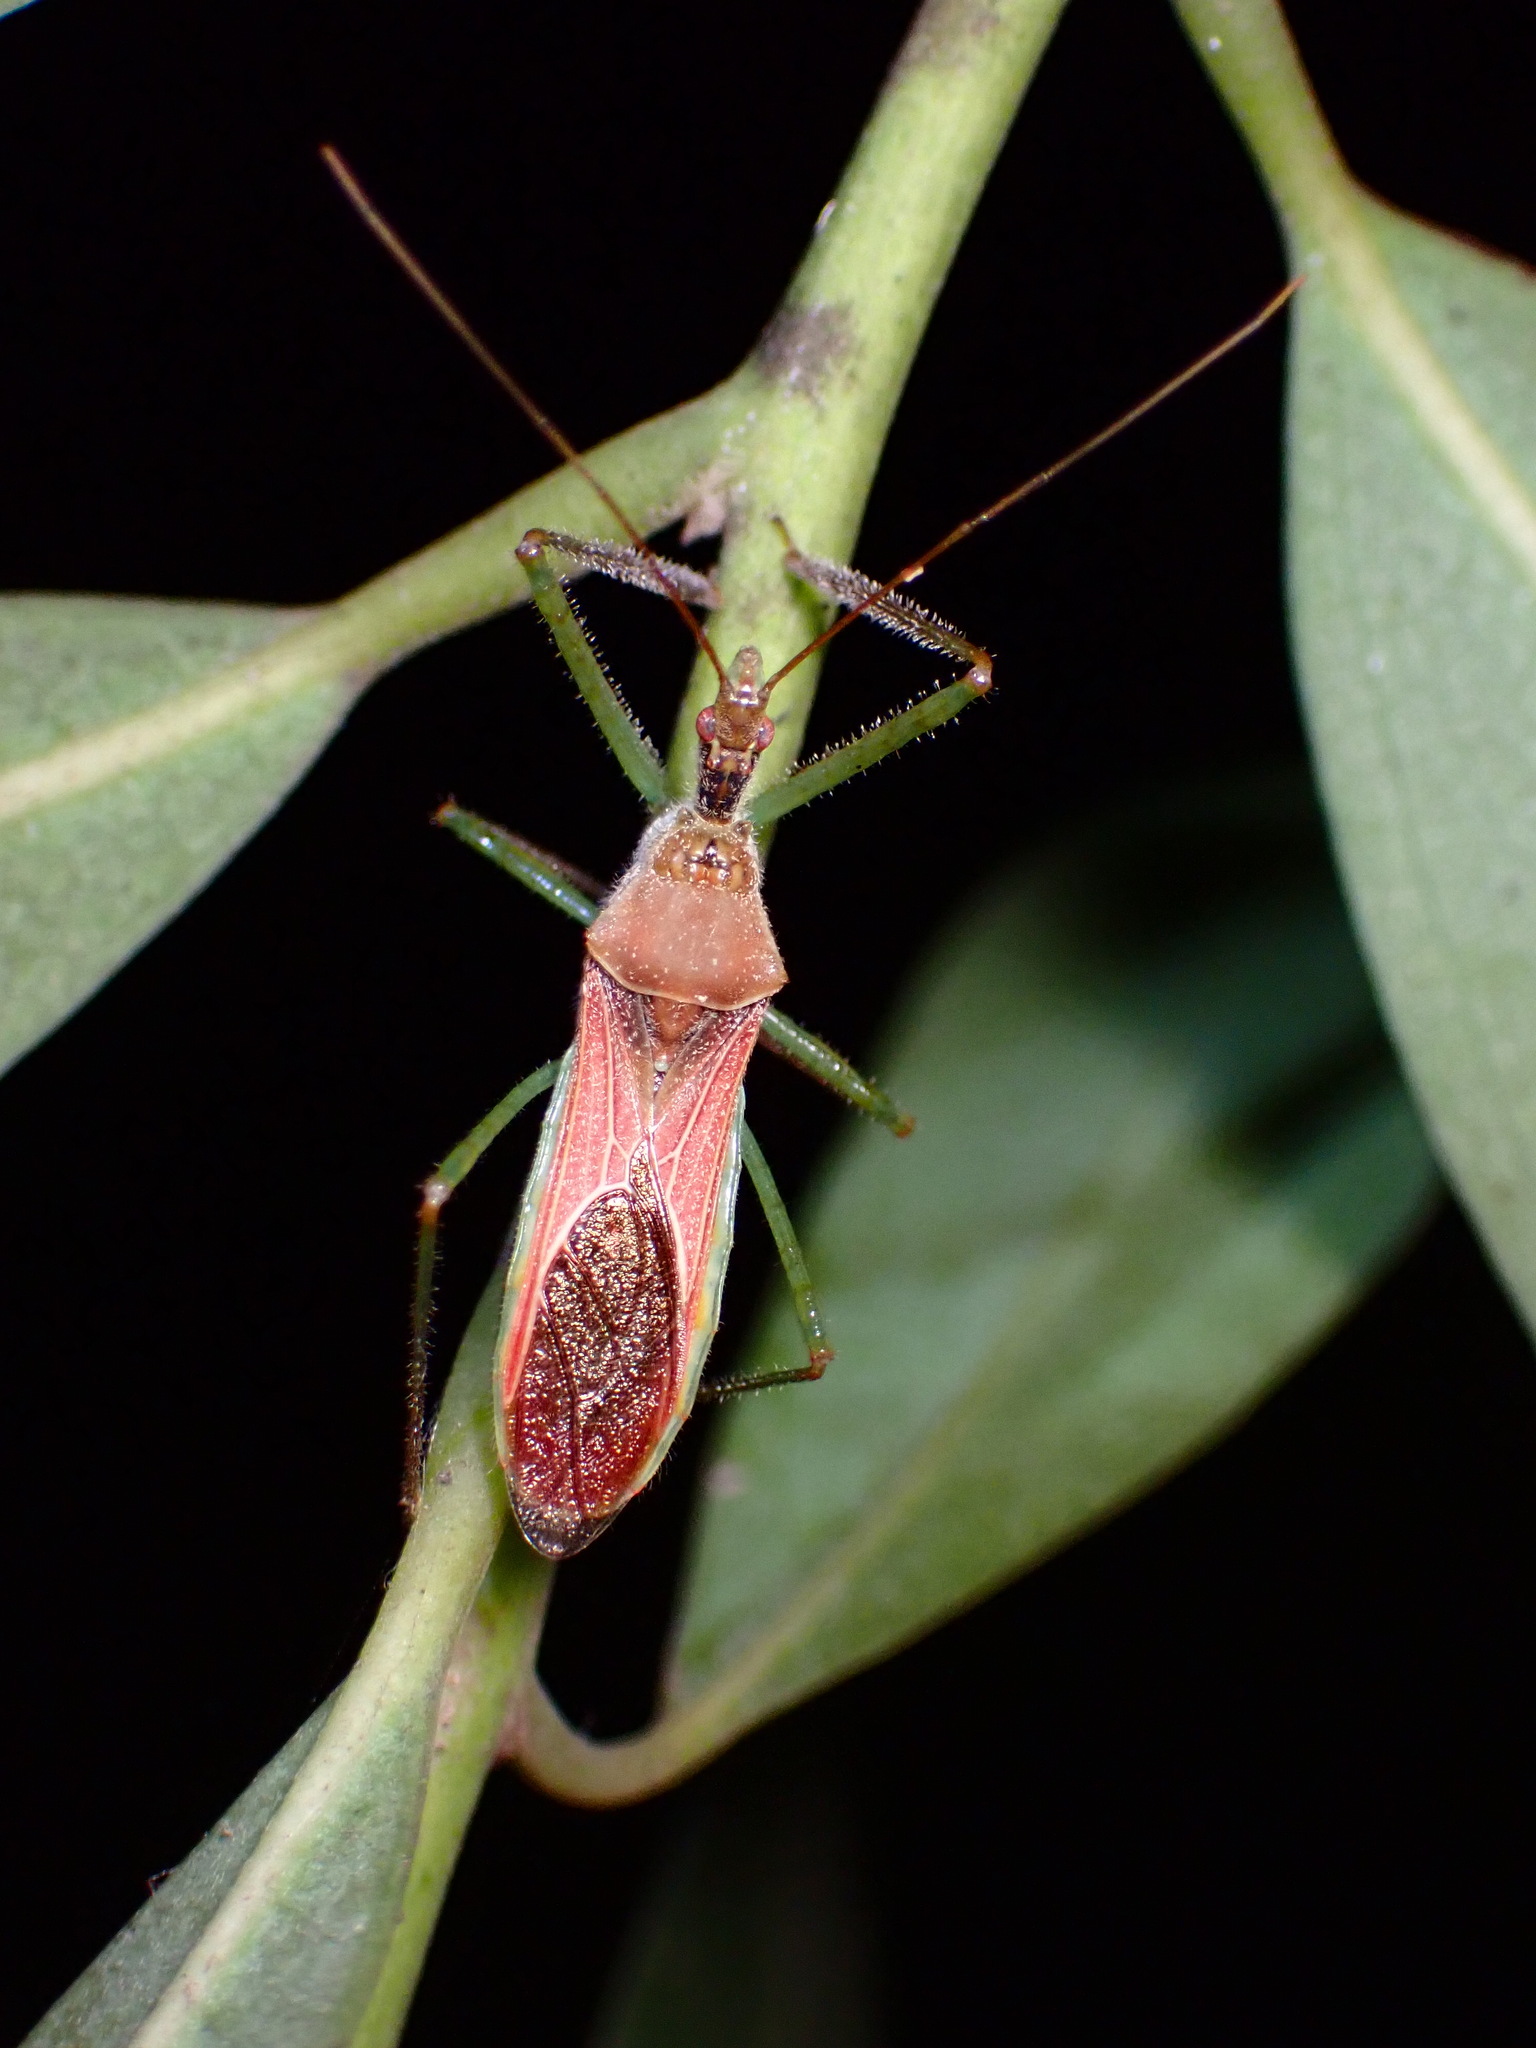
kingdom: Animalia
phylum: Arthropoda
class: Insecta
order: Hemiptera
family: Reduviidae
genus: Zelus
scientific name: Zelus renardii
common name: Assassin bug
